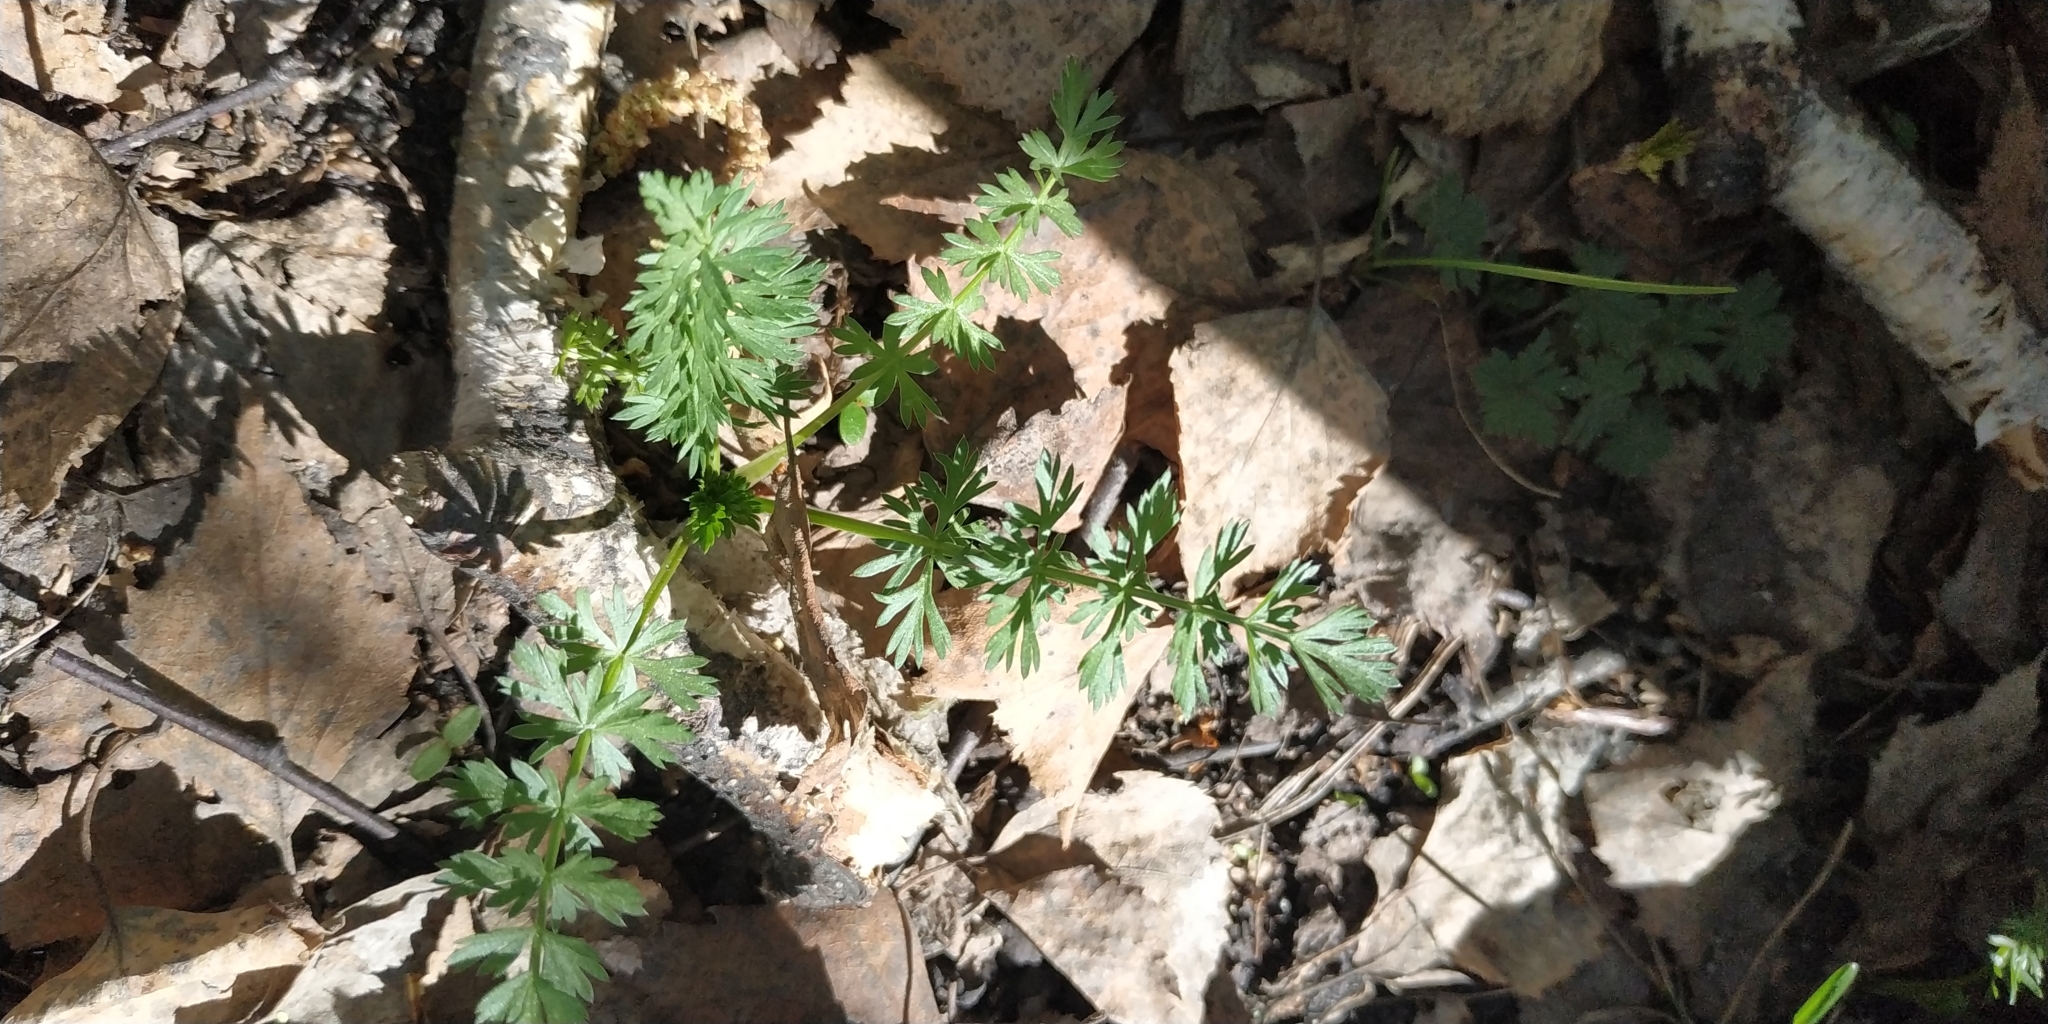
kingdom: Plantae
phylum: Tracheophyta
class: Magnoliopsida
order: Apiales
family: Apiaceae
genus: Carum
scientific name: Carum carvi
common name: Caraway
